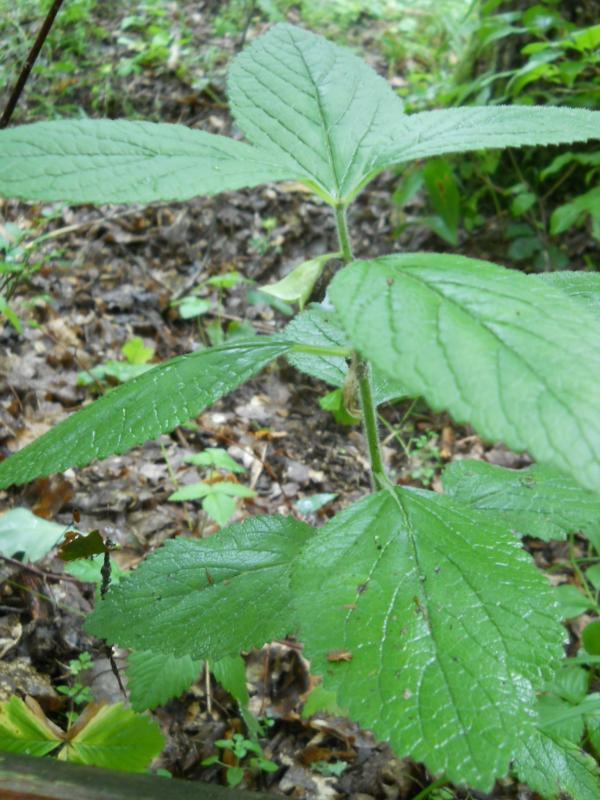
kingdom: Plantae
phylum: Tracheophyta
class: Magnoliopsida
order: Lamiales
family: Lamiaceae
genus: Melittis
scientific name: Melittis melissophyllum
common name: Bastard balm
